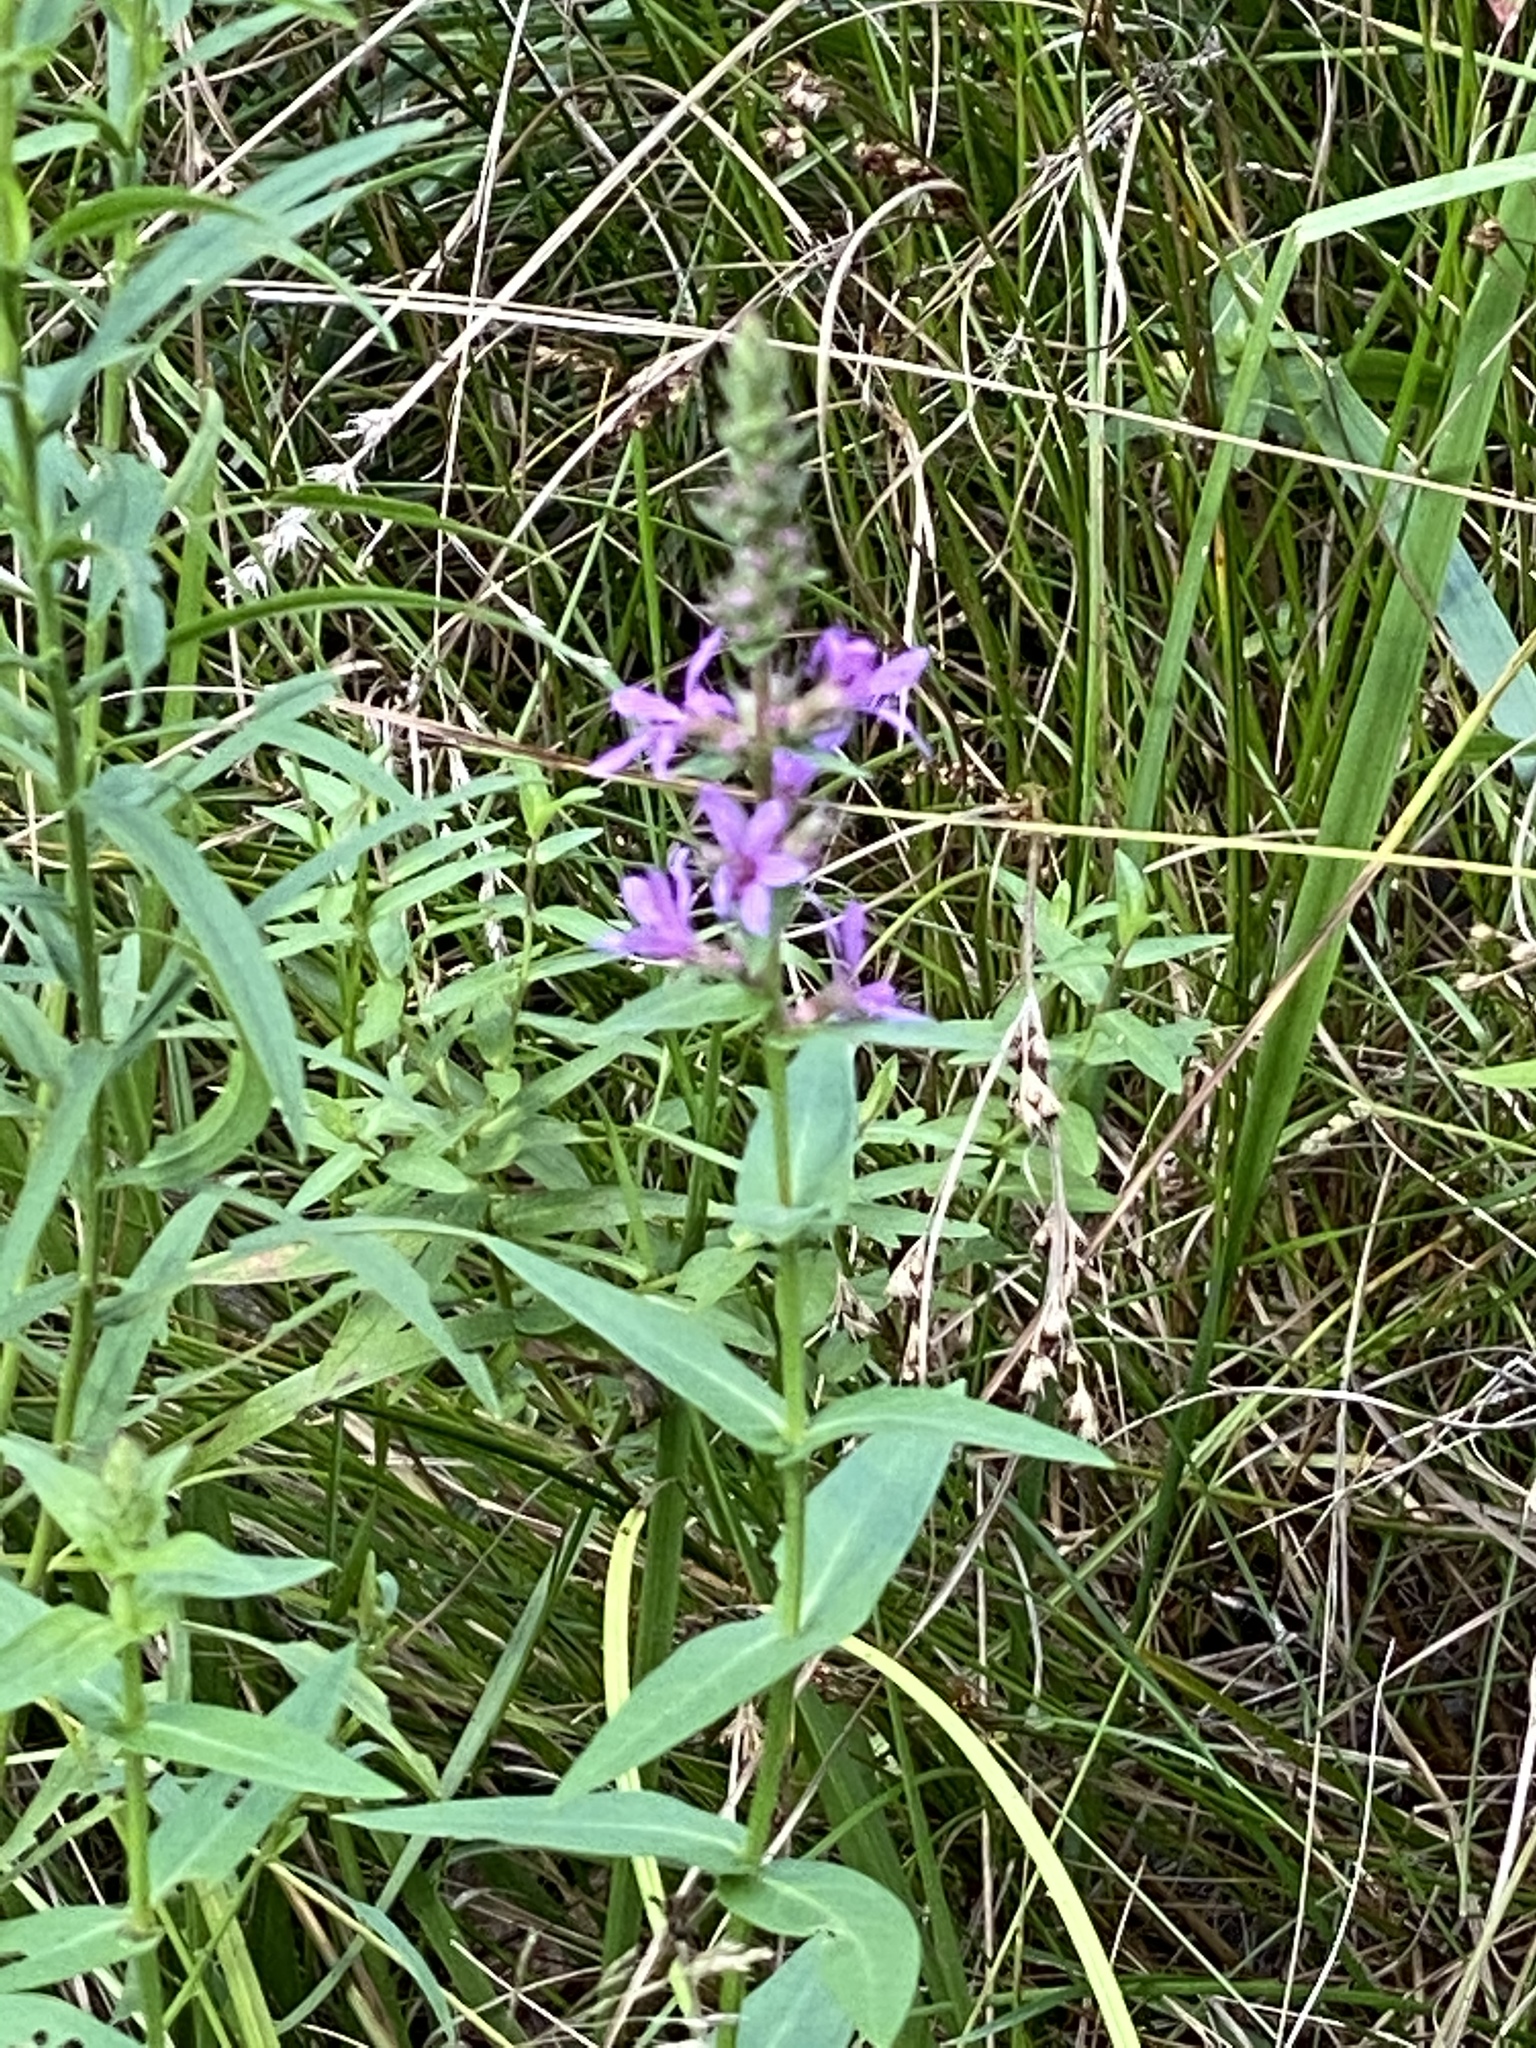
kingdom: Plantae
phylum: Tracheophyta
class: Magnoliopsida
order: Myrtales
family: Lythraceae
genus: Lythrum
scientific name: Lythrum salicaria
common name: Purple loosestrife
